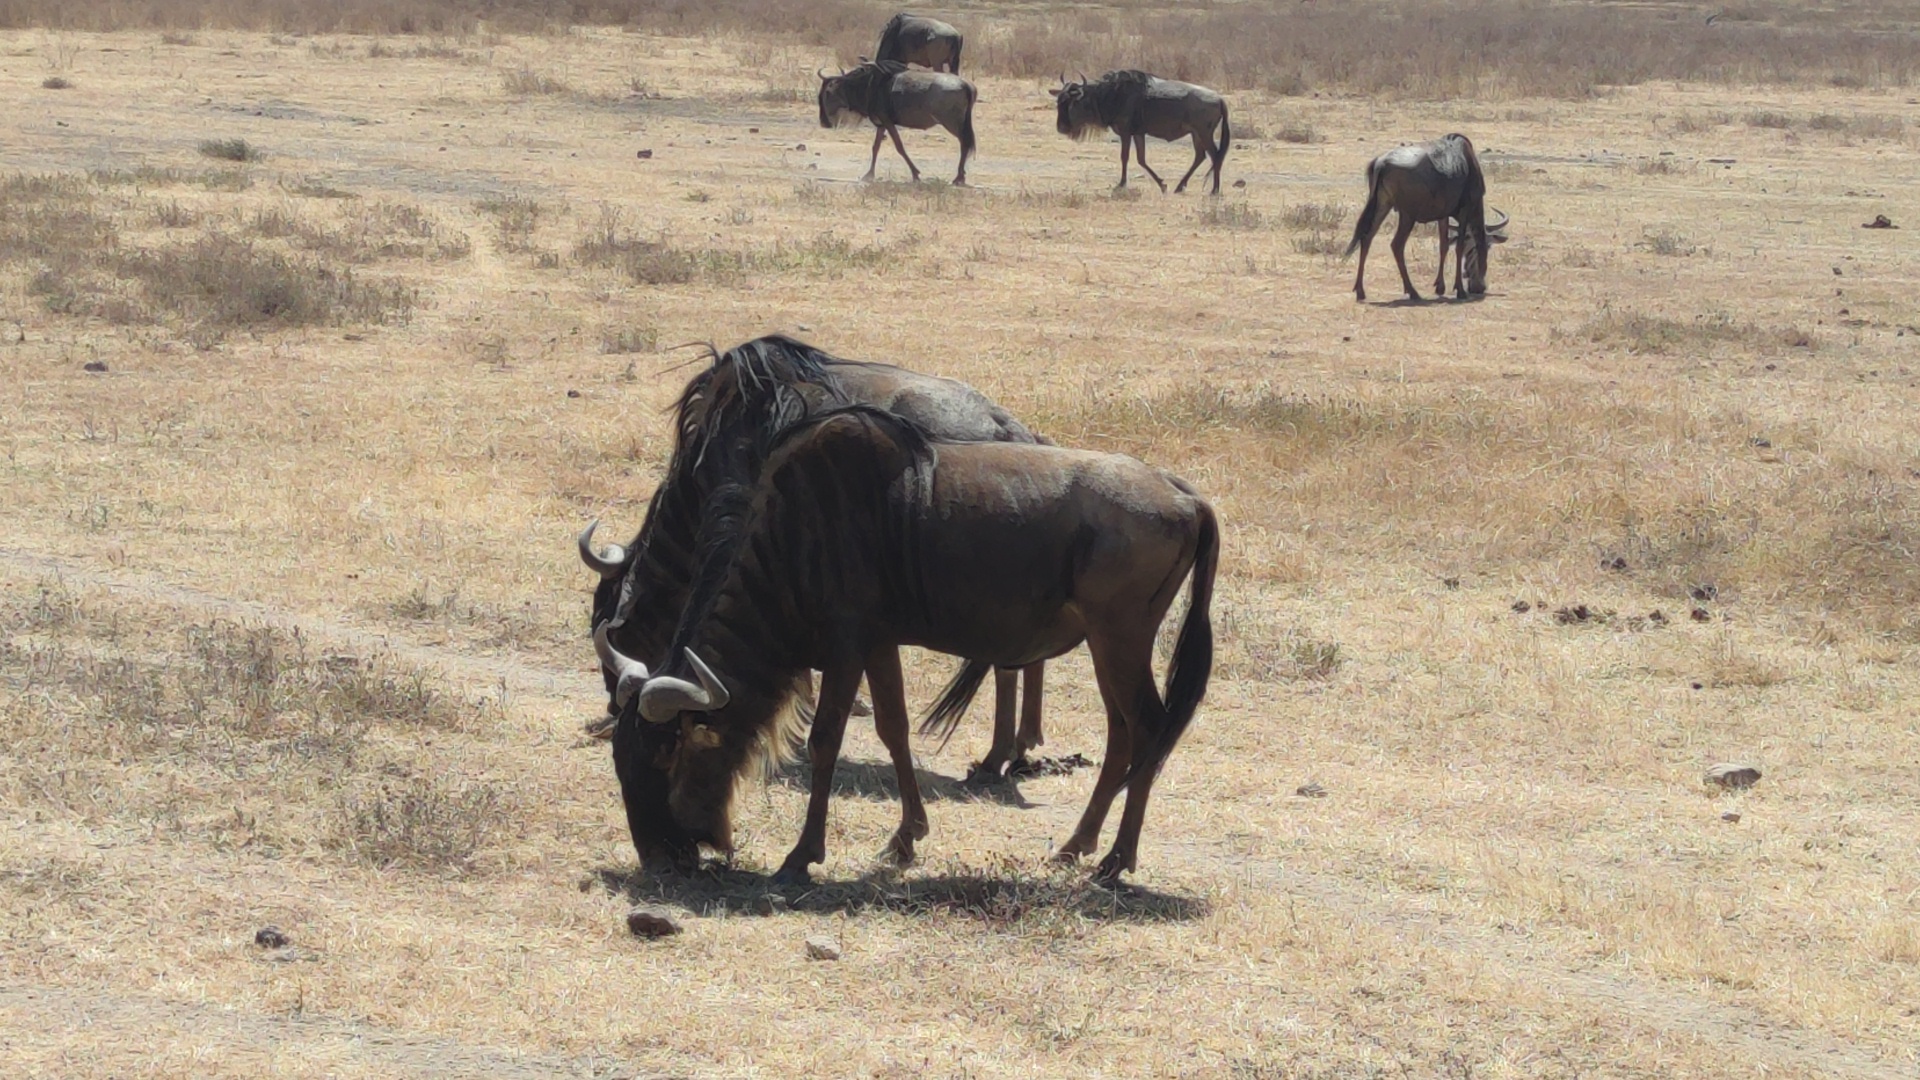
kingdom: Animalia
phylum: Chordata
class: Mammalia
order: Artiodactyla
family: Bovidae
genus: Connochaetes
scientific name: Connochaetes taurinus
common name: Blue wildebeest
